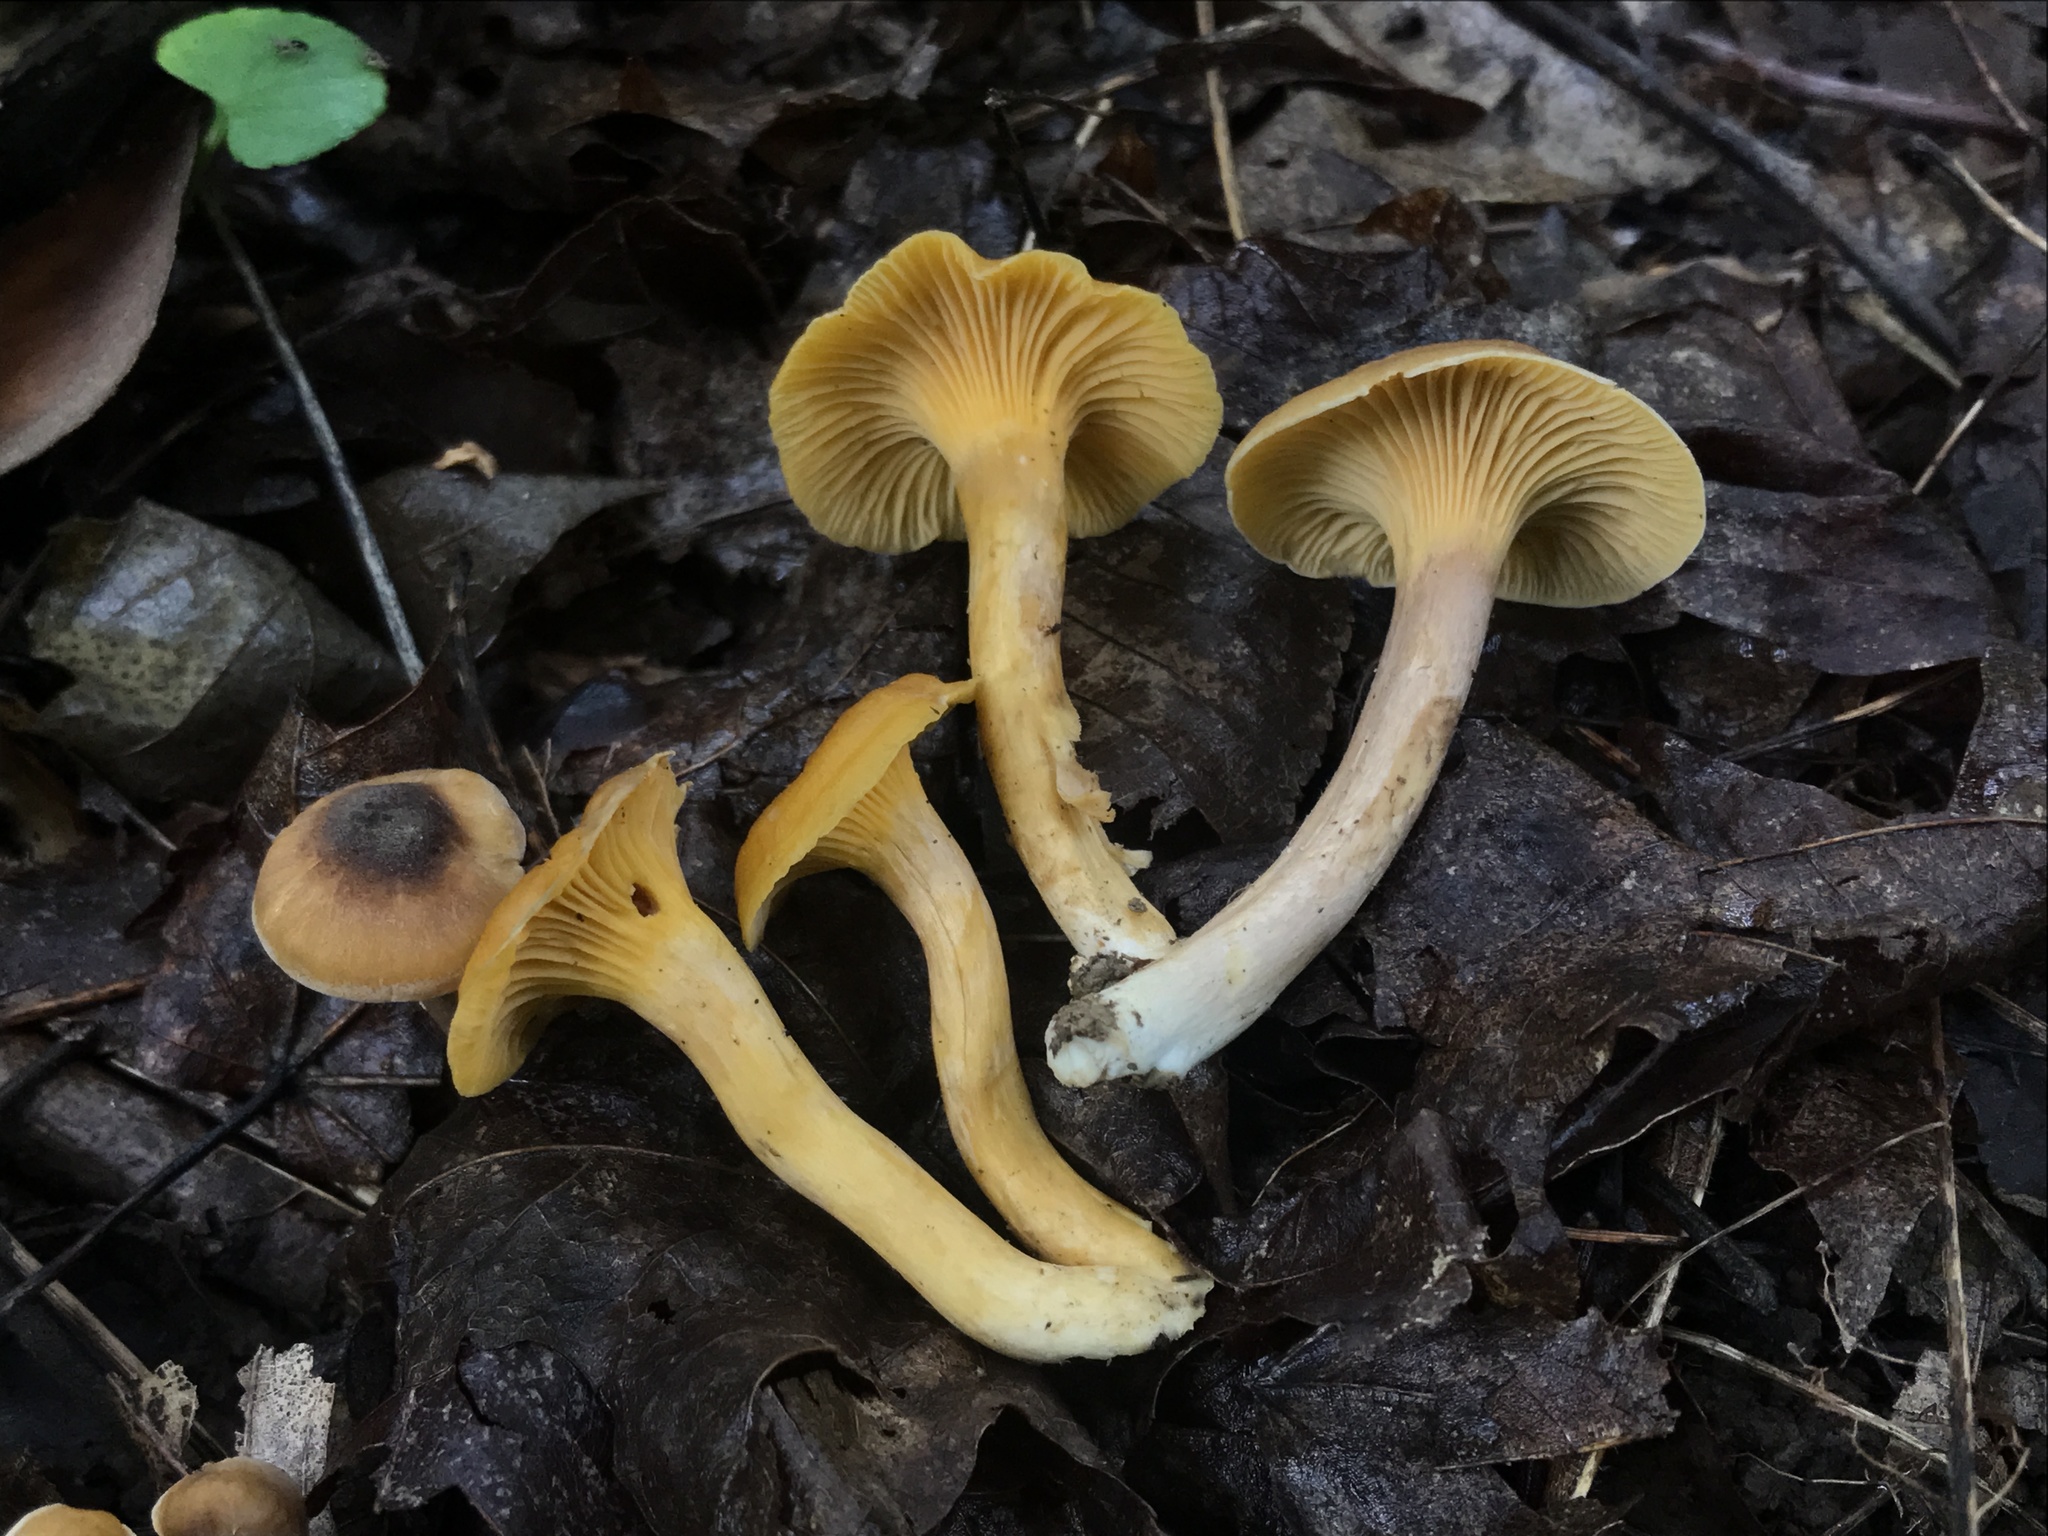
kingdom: Fungi
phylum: Basidiomycota
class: Agaricomycetes
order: Cantharellales
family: Hydnaceae
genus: Cantharellus
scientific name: Cantharellus appalachiensis
